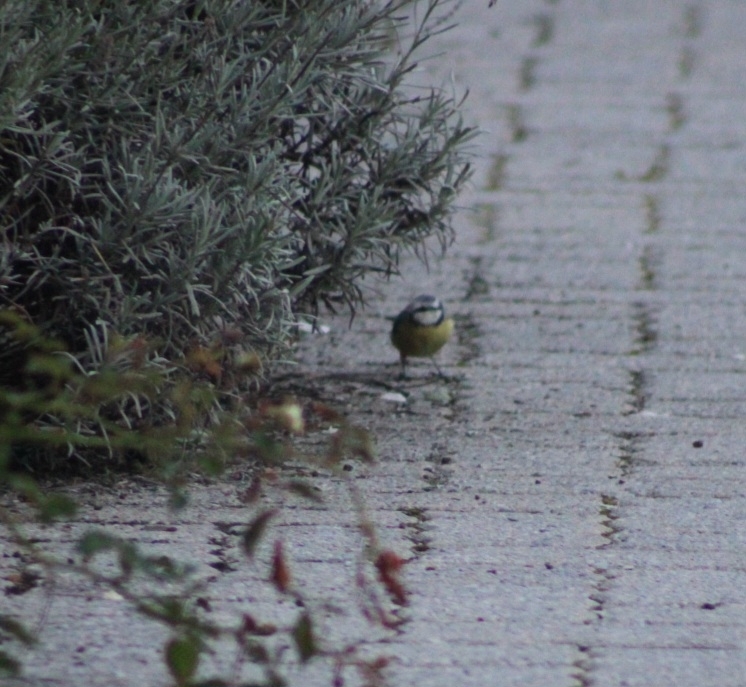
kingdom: Animalia
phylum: Chordata
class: Aves
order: Passeriformes
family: Paridae
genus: Cyanistes
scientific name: Cyanistes caeruleus
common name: Eurasian blue tit
